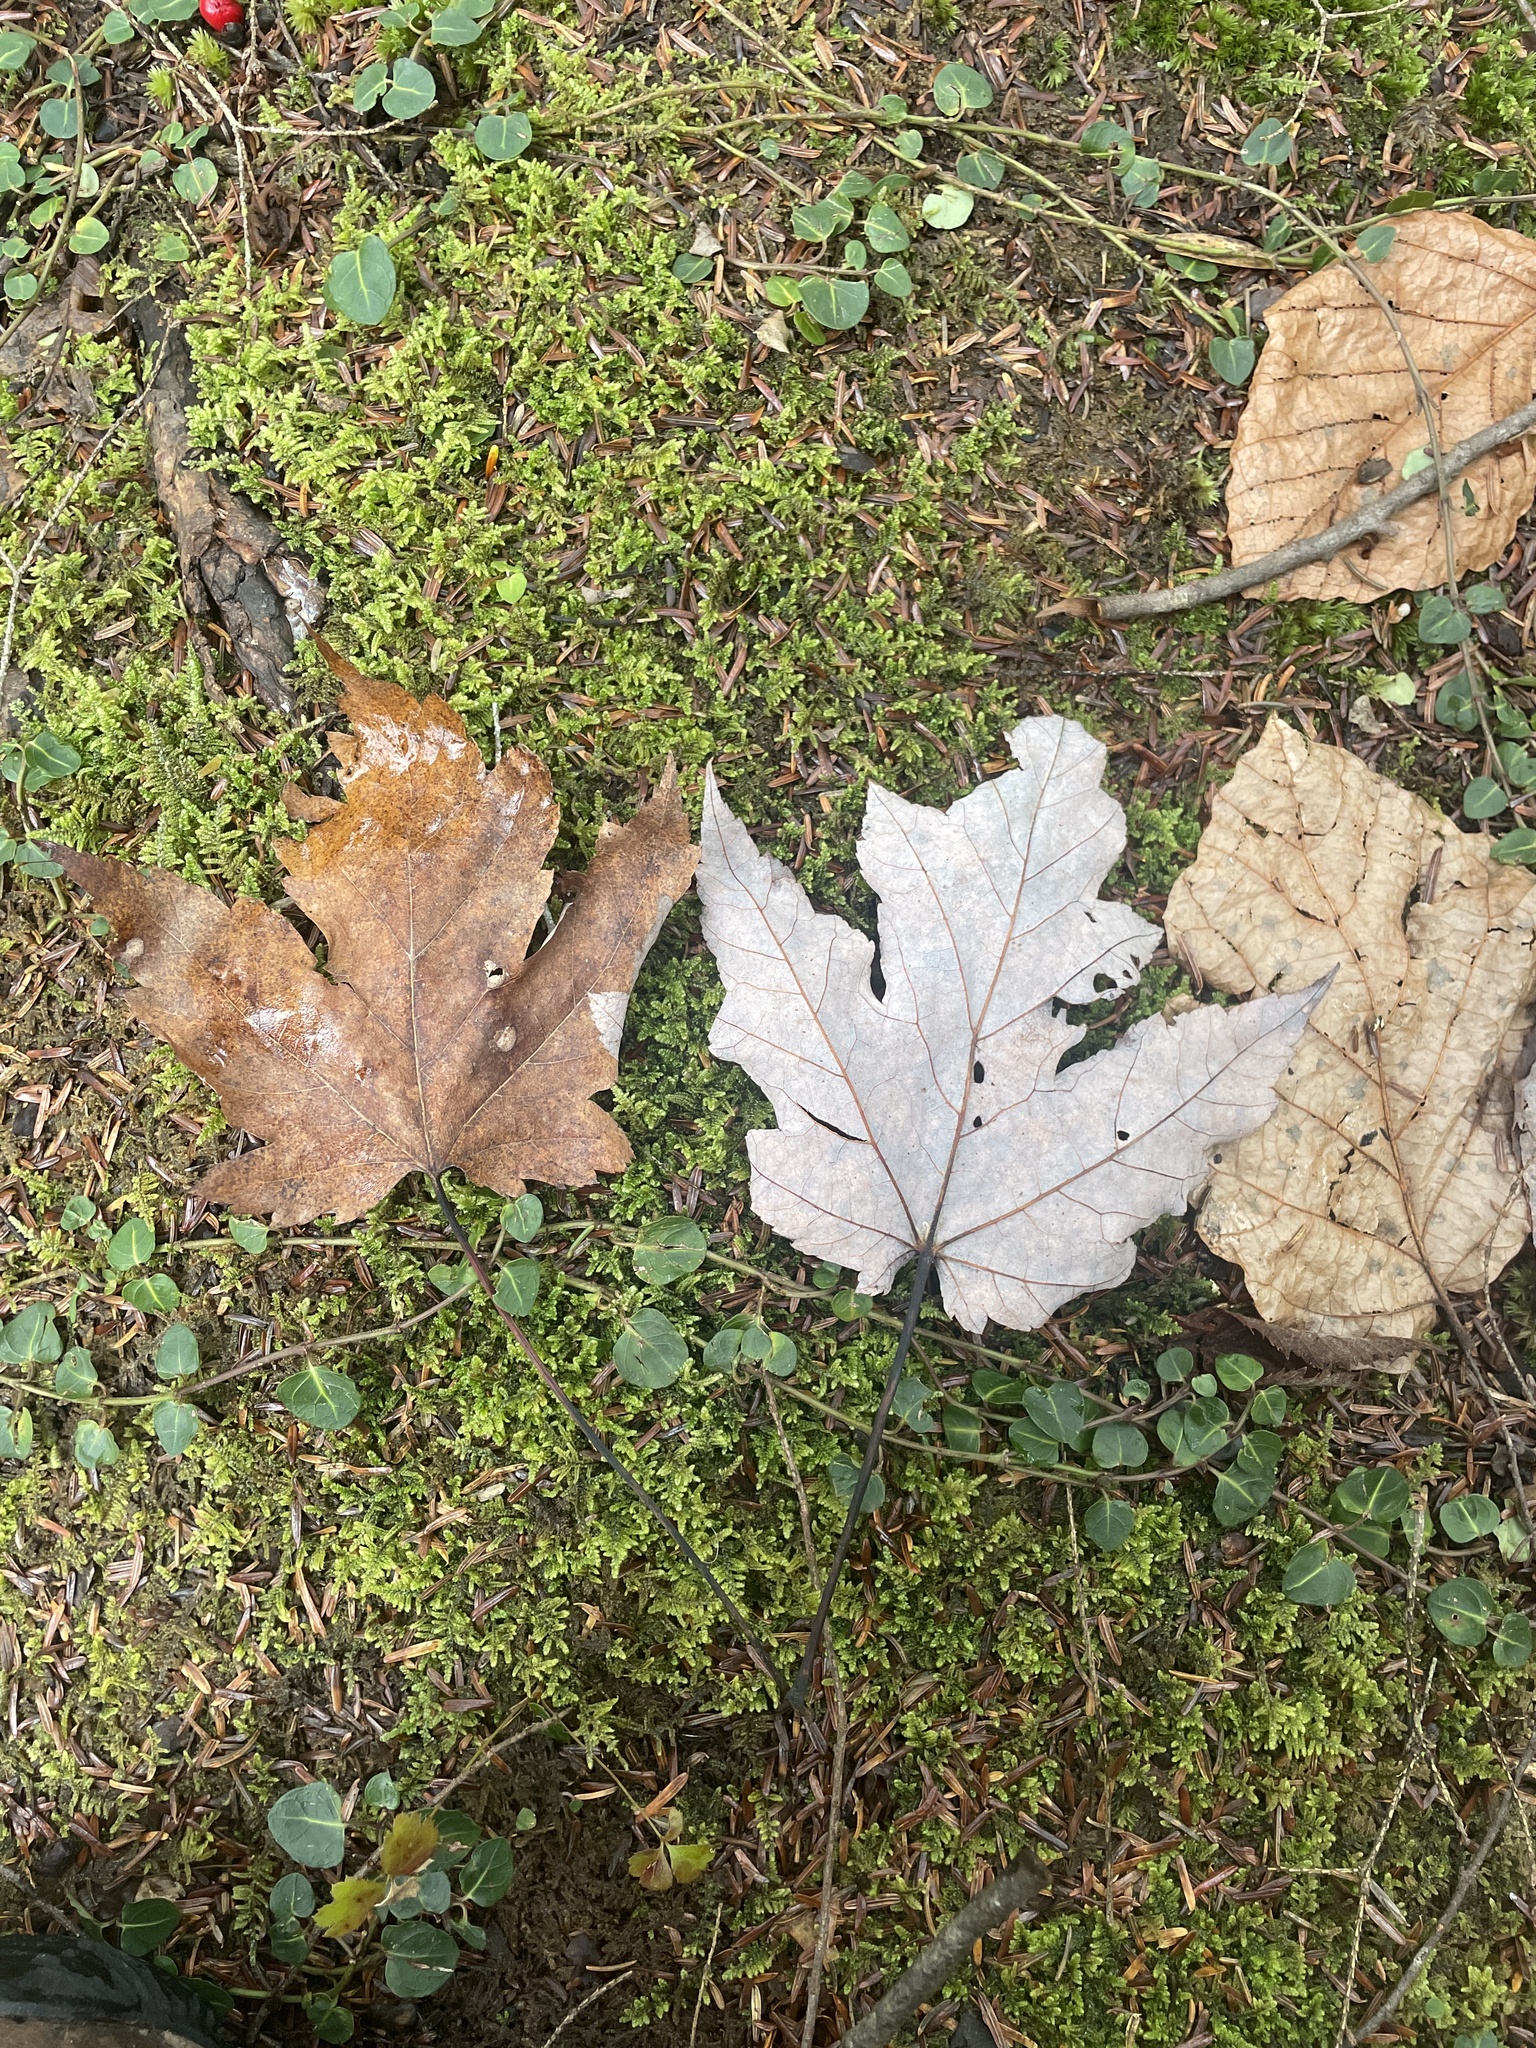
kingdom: Plantae
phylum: Tracheophyta
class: Magnoliopsida
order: Sapindales
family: Sapindaceae
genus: Acer
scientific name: Acer saccharinum
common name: Silver maple
